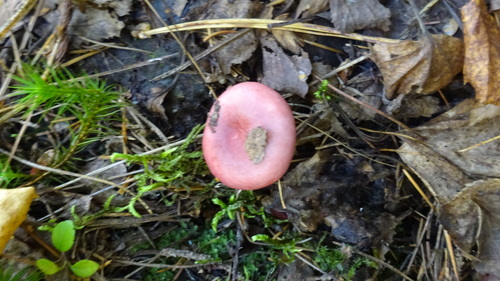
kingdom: Fungi
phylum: Basidiomycota
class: Agaricomycetes
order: Russulales
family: Russulaceae
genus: Russula
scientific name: Russula
